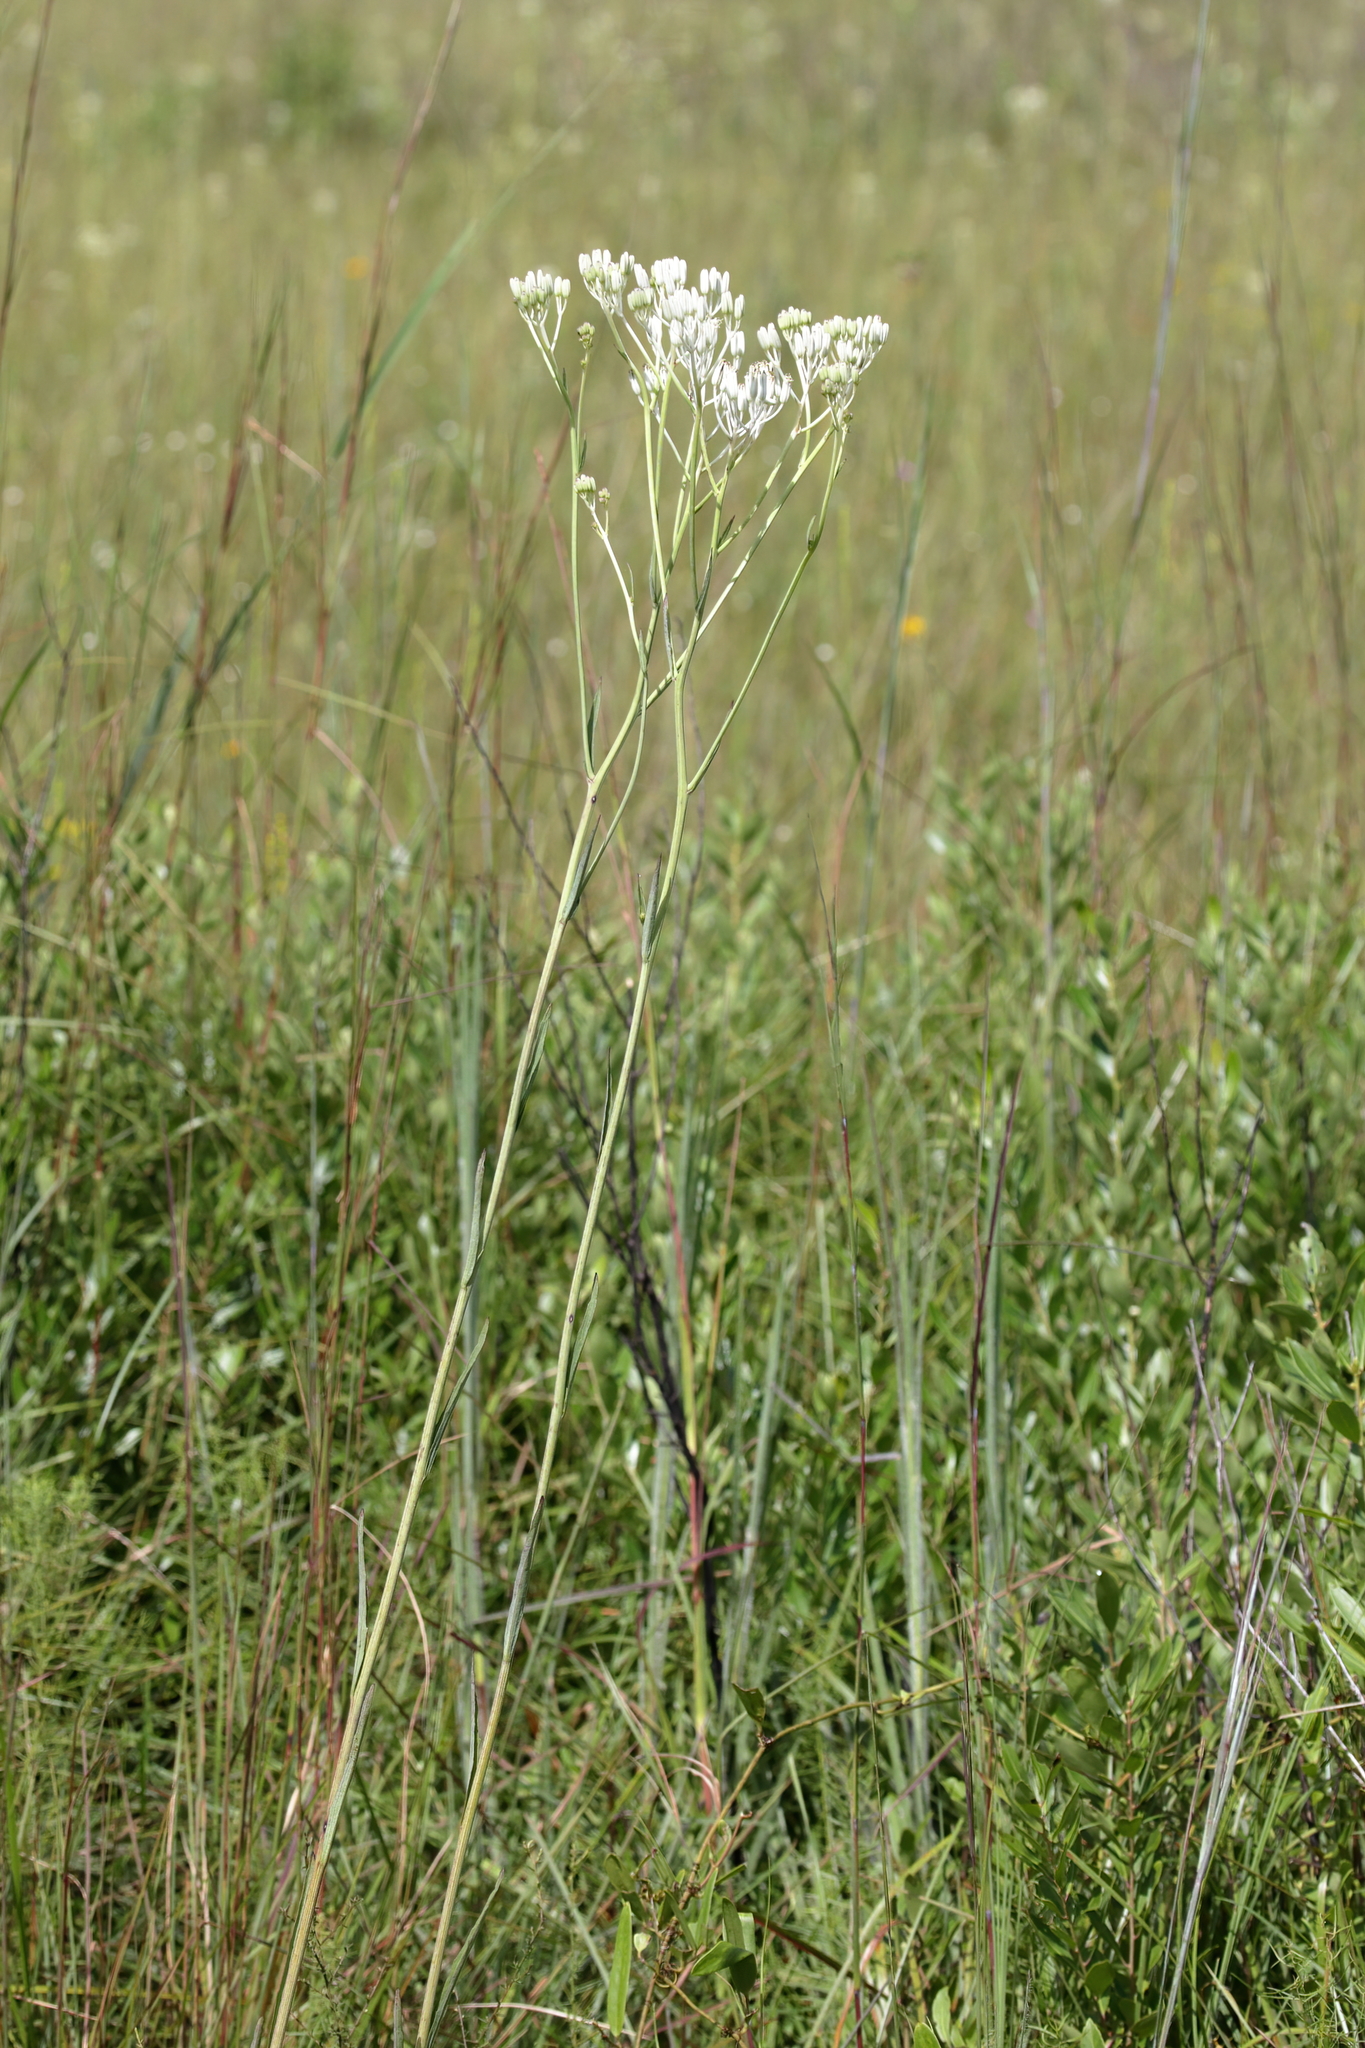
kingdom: Plantae
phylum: Tracheophyta
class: Magnoliopsida
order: Asterales
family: Asteraceae
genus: Arnoglossum
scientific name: Arnoglossum ovatum
